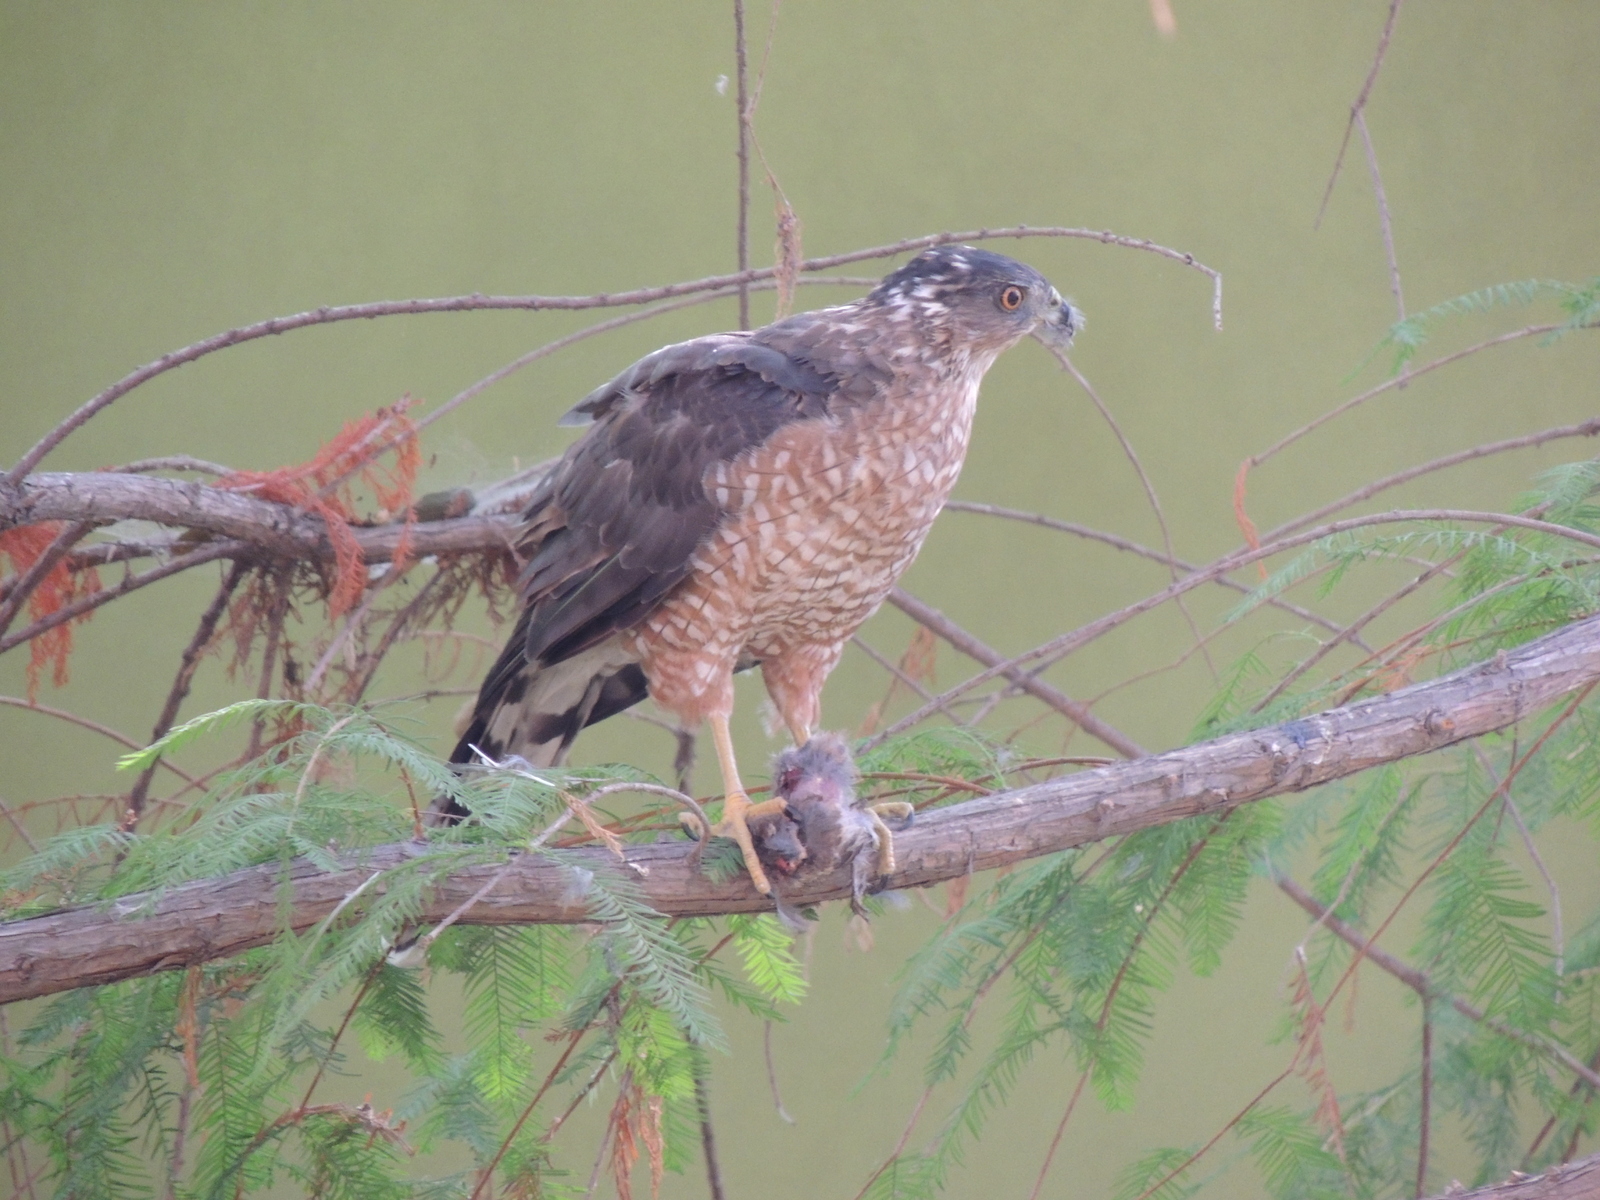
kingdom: Animalia
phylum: Chordata
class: Aves
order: Accipitriformes
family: Accipitridae
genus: Accipiter
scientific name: Accipiter cooperii
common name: Cooper's hawk
